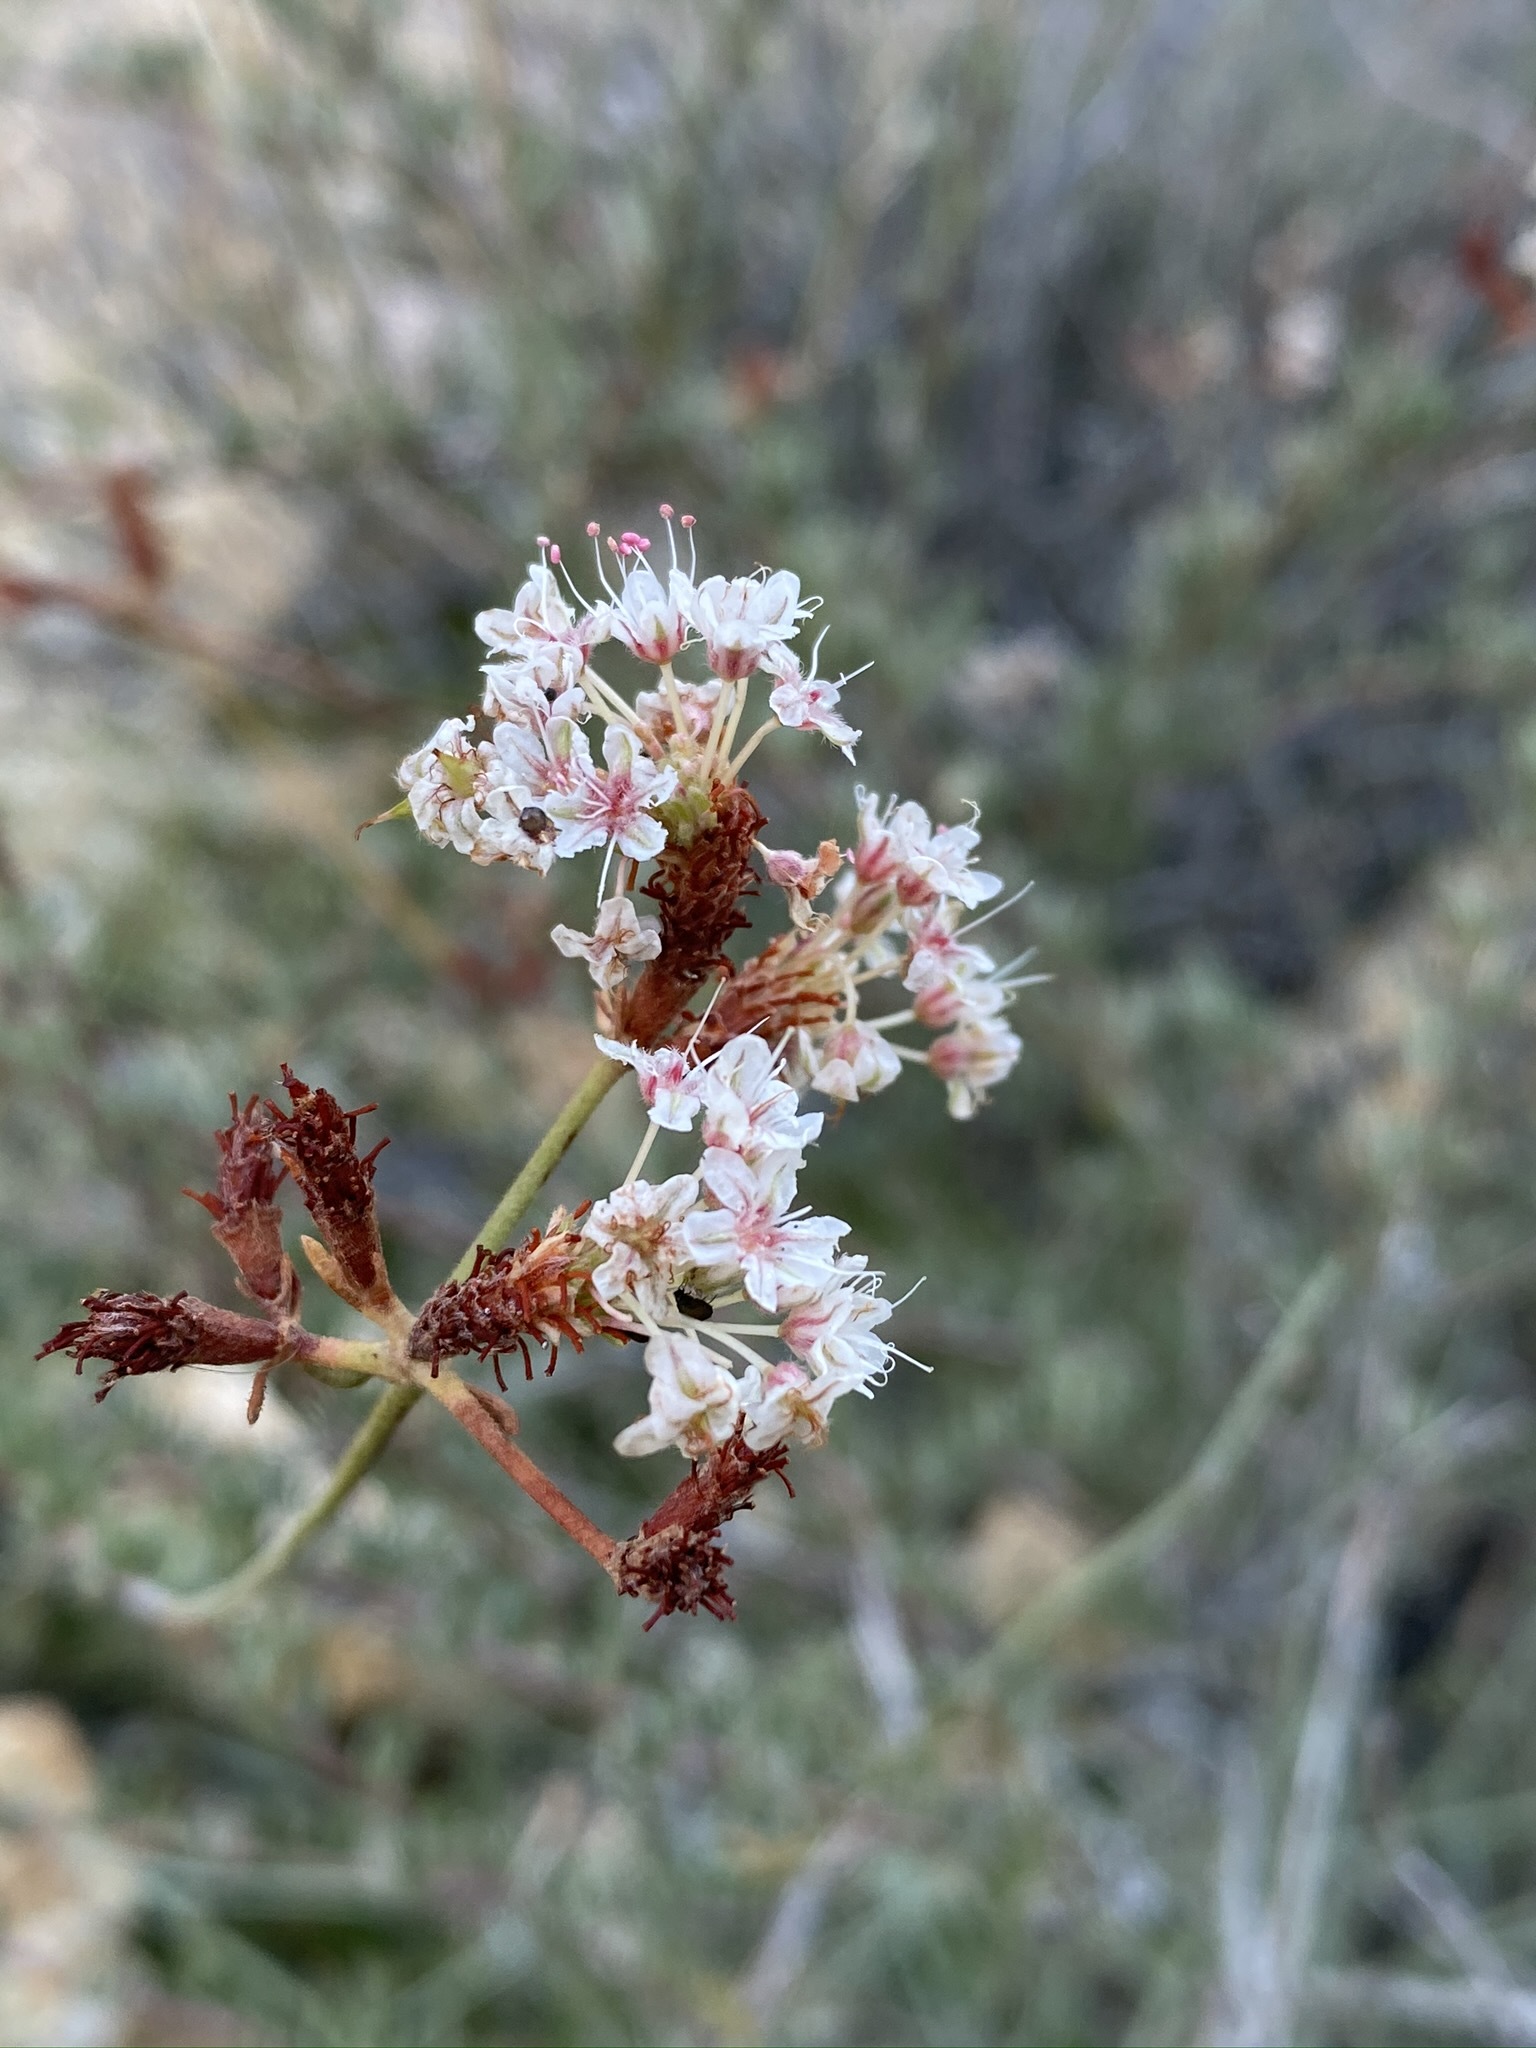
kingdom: Plantae
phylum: Tracheophyta
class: Magnoliopsida
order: Caryophyllales
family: Polygonaceae
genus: Eriogonum
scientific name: Eriogonum fasciculatum
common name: California wild buckwheat
